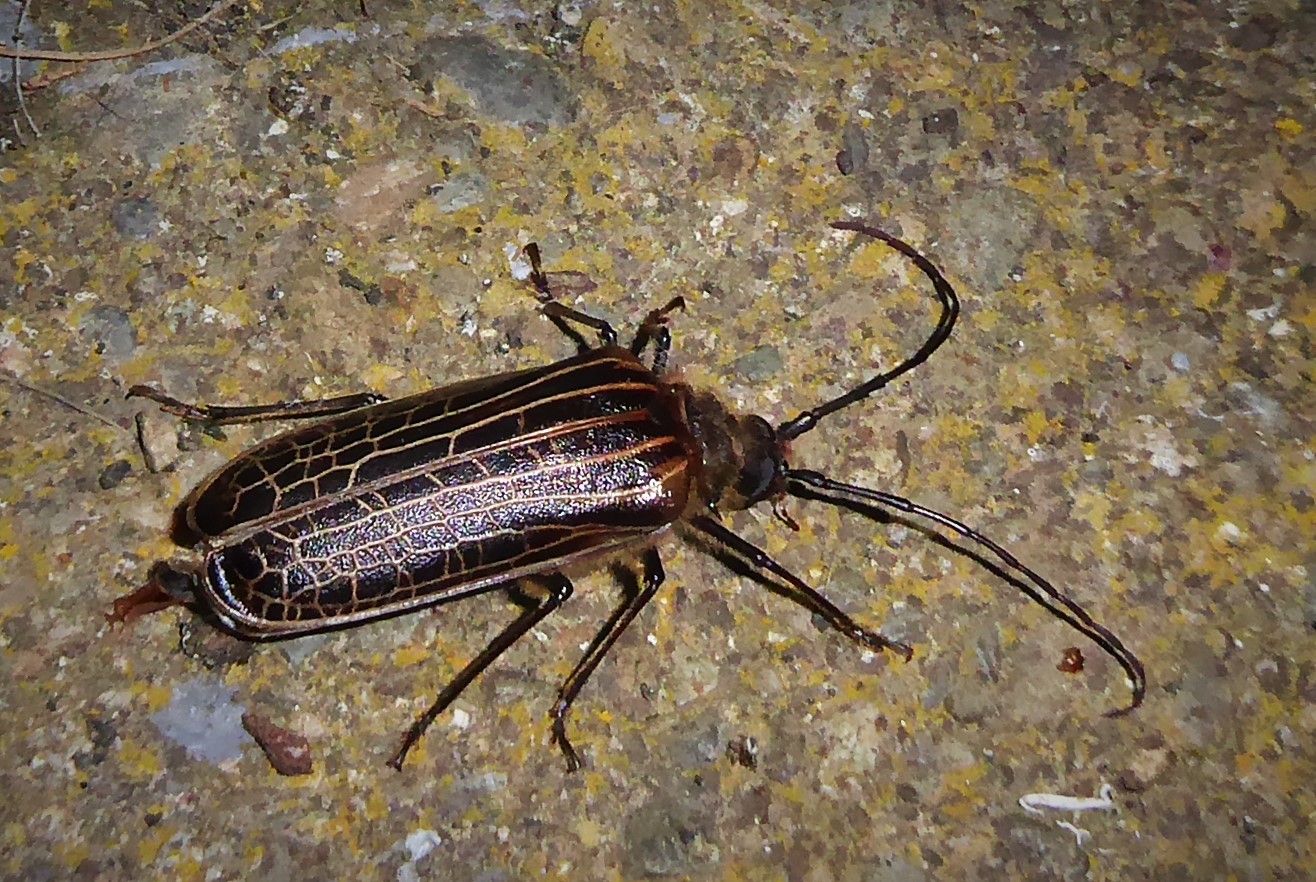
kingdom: Animalia
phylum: Arthropoda
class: Insecta
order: Coleoptera
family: Cerambycidae
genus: Prionoplus
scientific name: Prionoplus reticularis
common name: Huhu beetle
